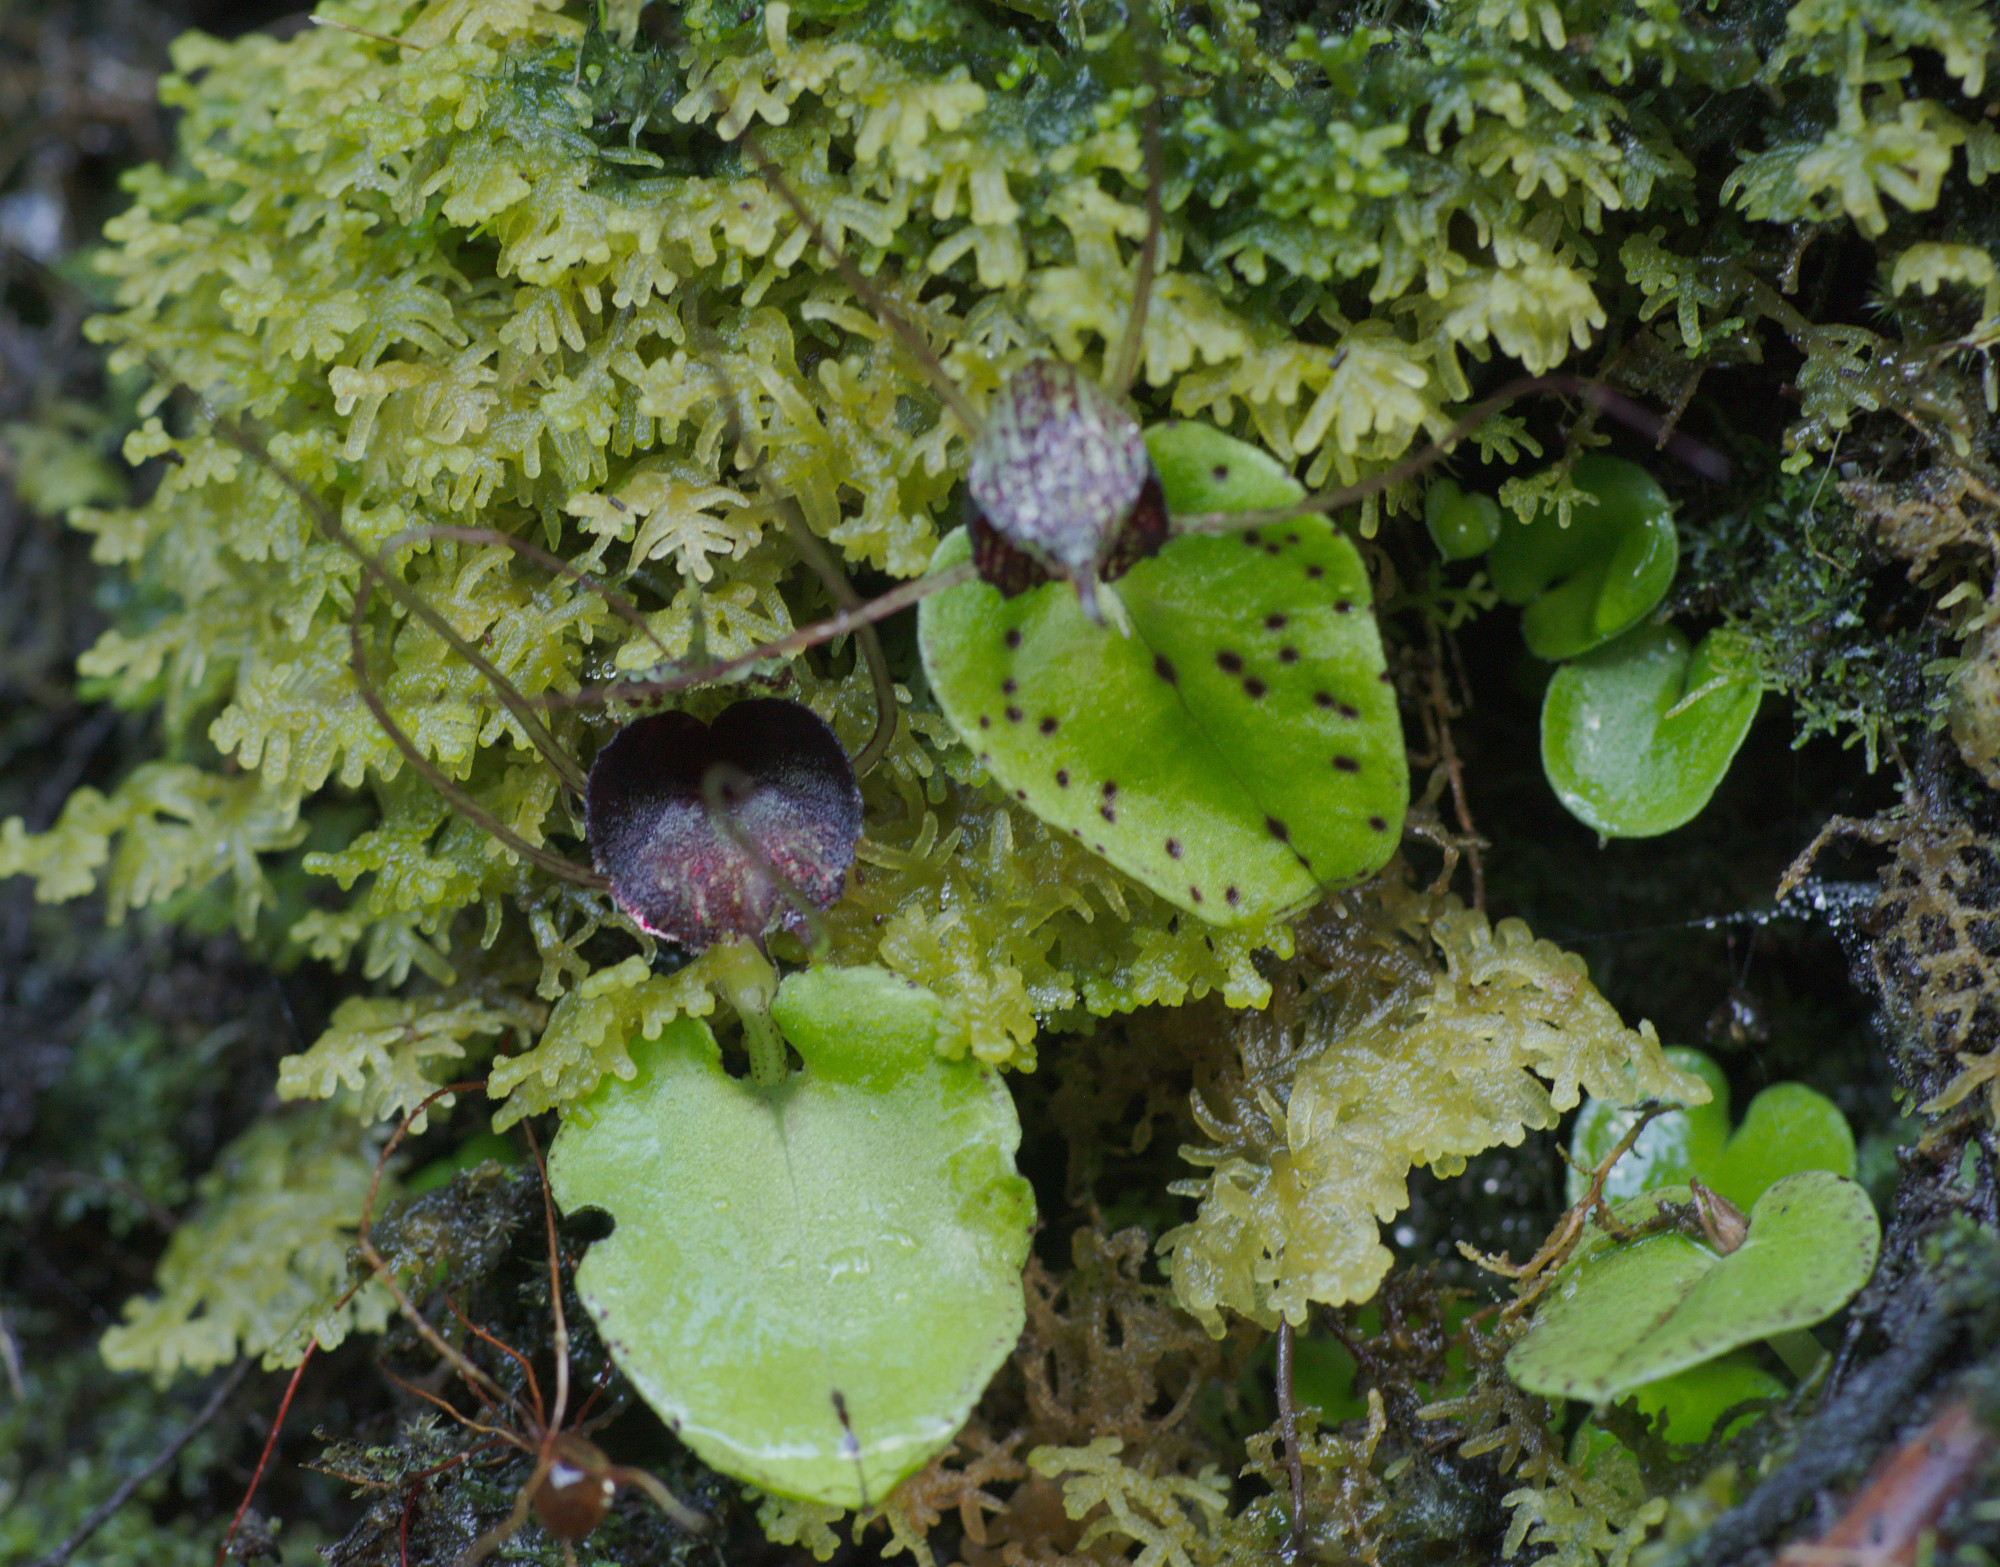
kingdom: Plantae
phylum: Tracheophyta
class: Liliopsida
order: Asparagales
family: Orchidaceae
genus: Corybas
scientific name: Corybas iridescens
